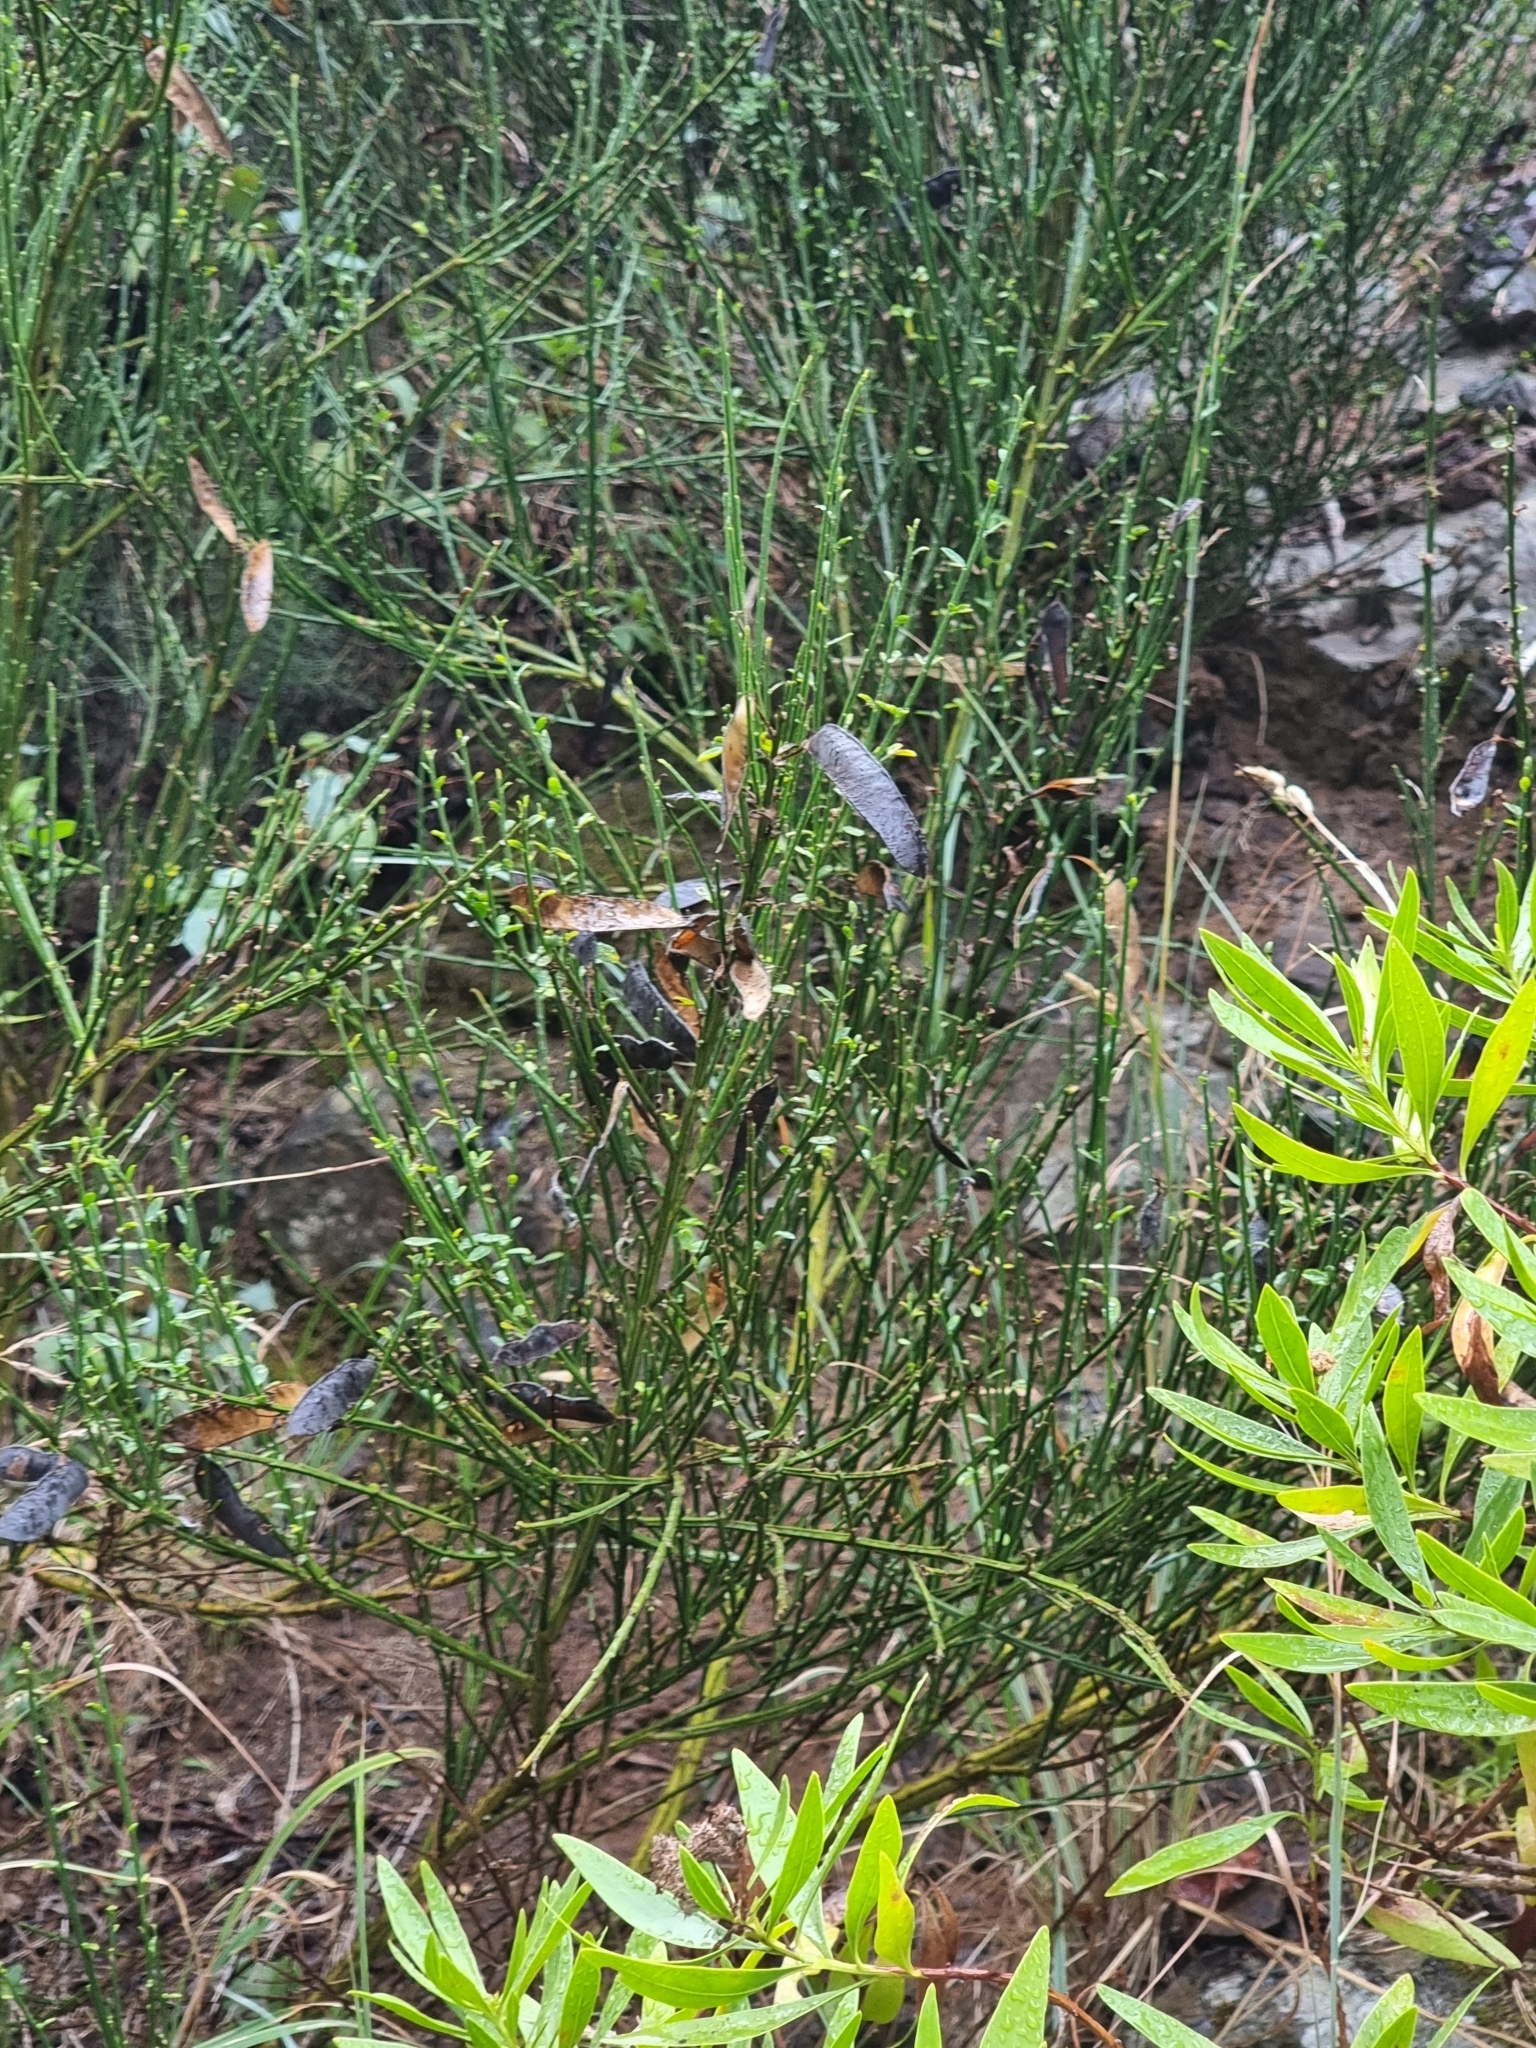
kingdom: Plantae
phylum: Tracheophyta
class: Magnoliopsida
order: Fabales
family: Fabaceae
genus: Cytisus
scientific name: Cytisus scoparius
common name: Scotch broom
